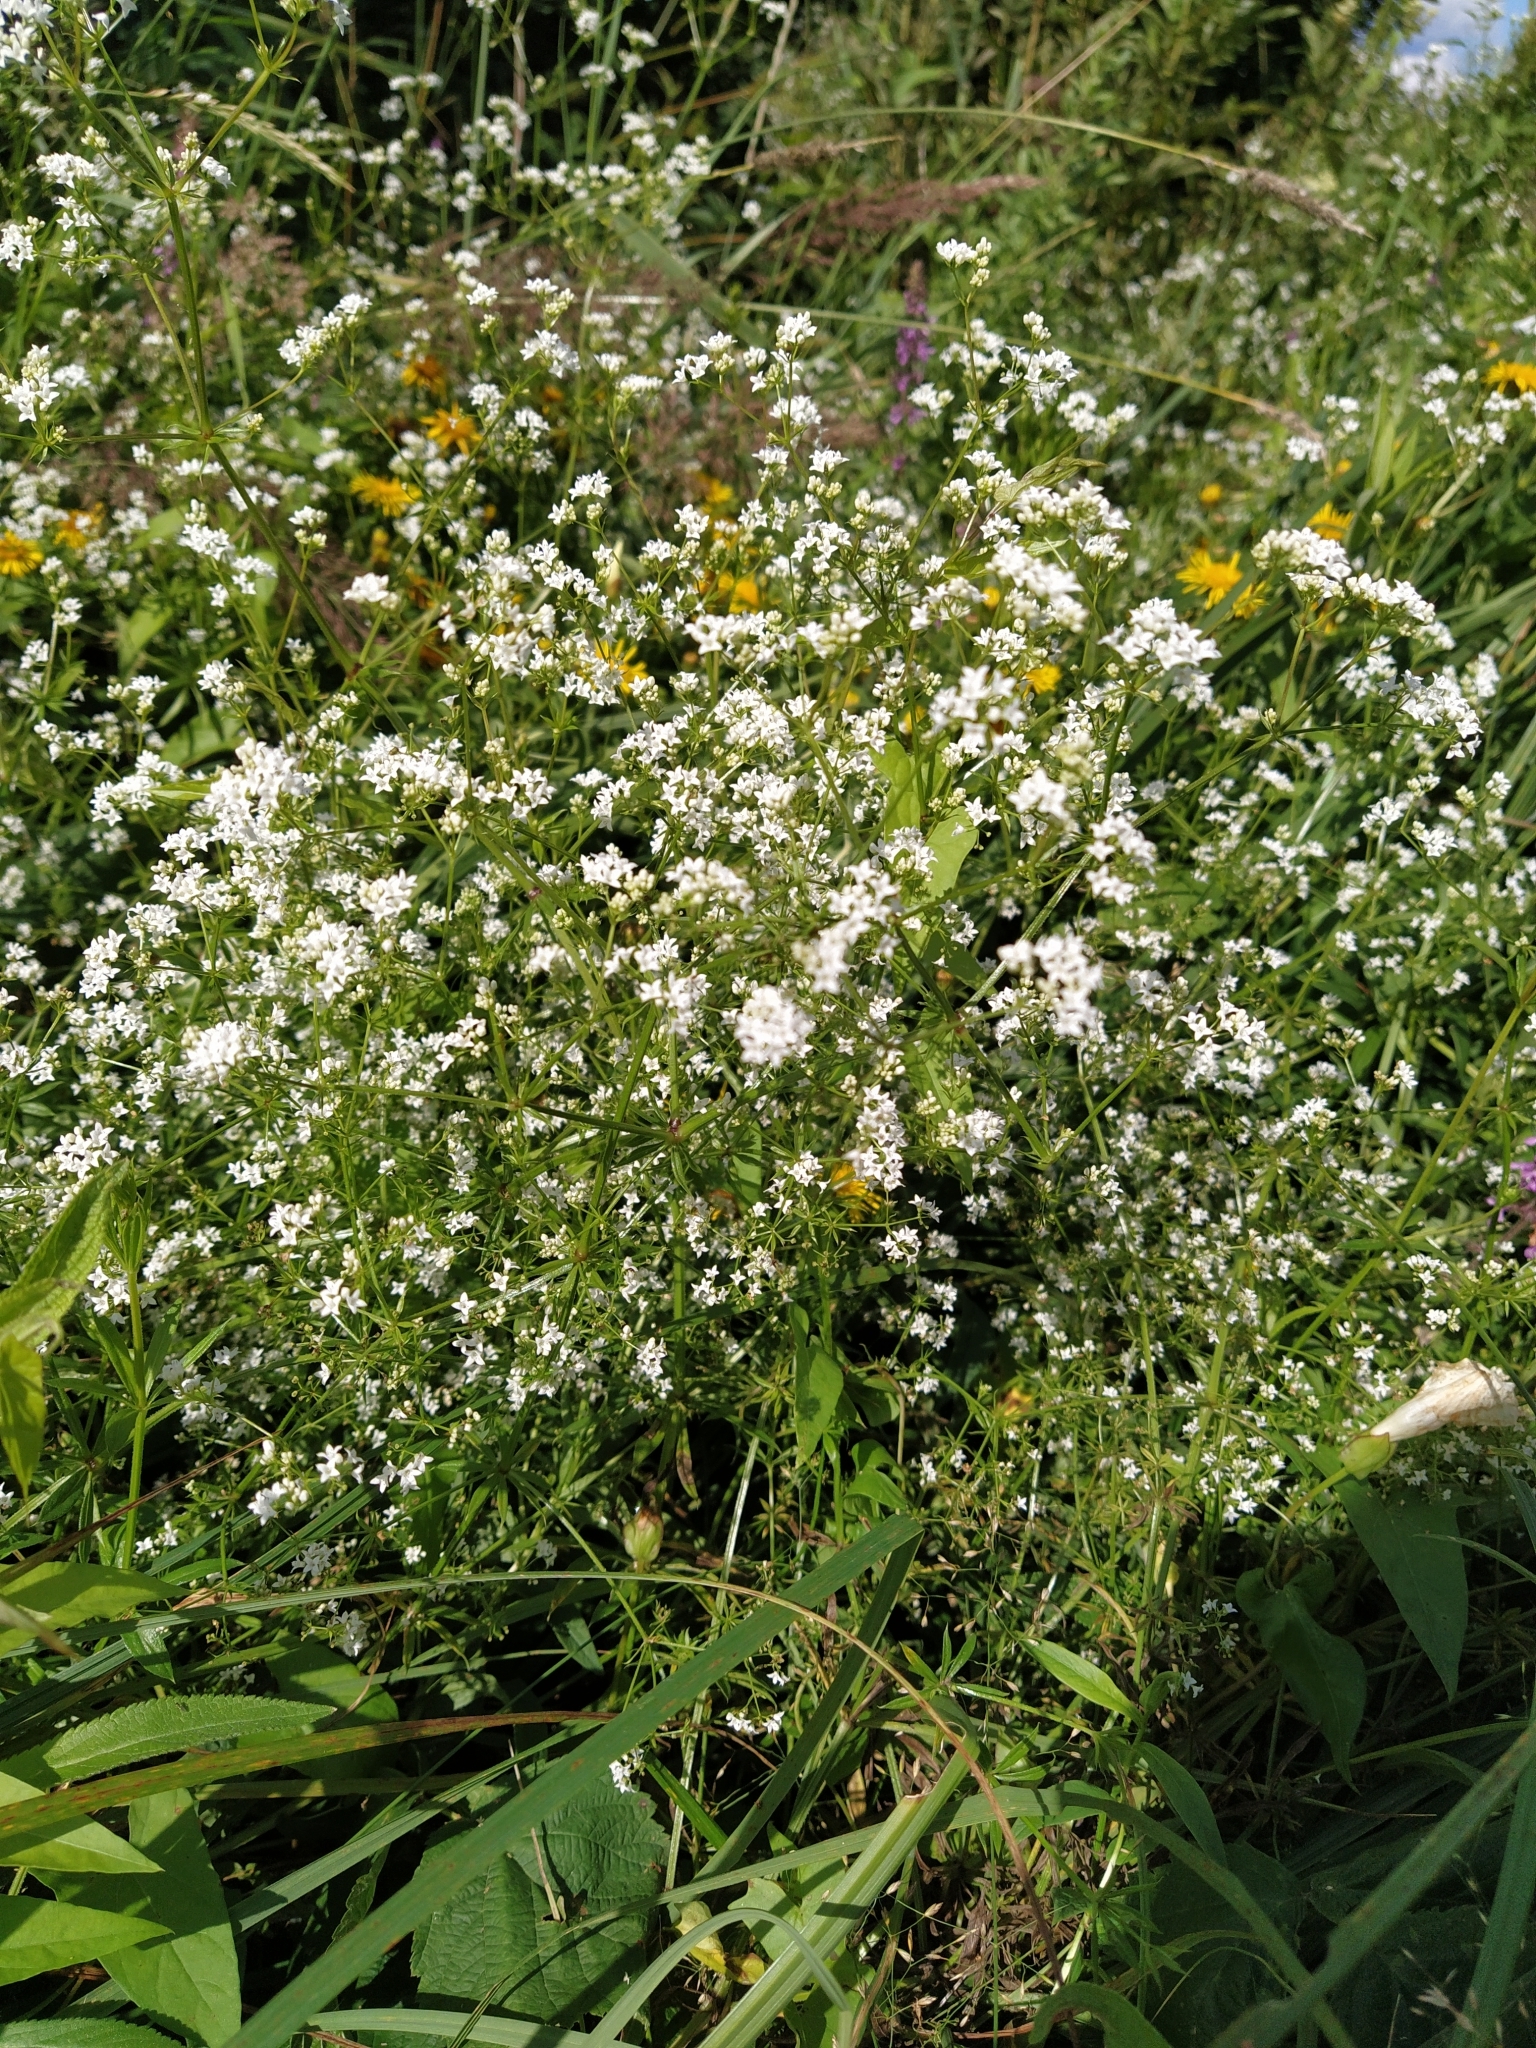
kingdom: Plantae
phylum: Tracheophyta
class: Magnoliopsida
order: Gentianales
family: Rubiaceae
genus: Galium
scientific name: Galium rivale
